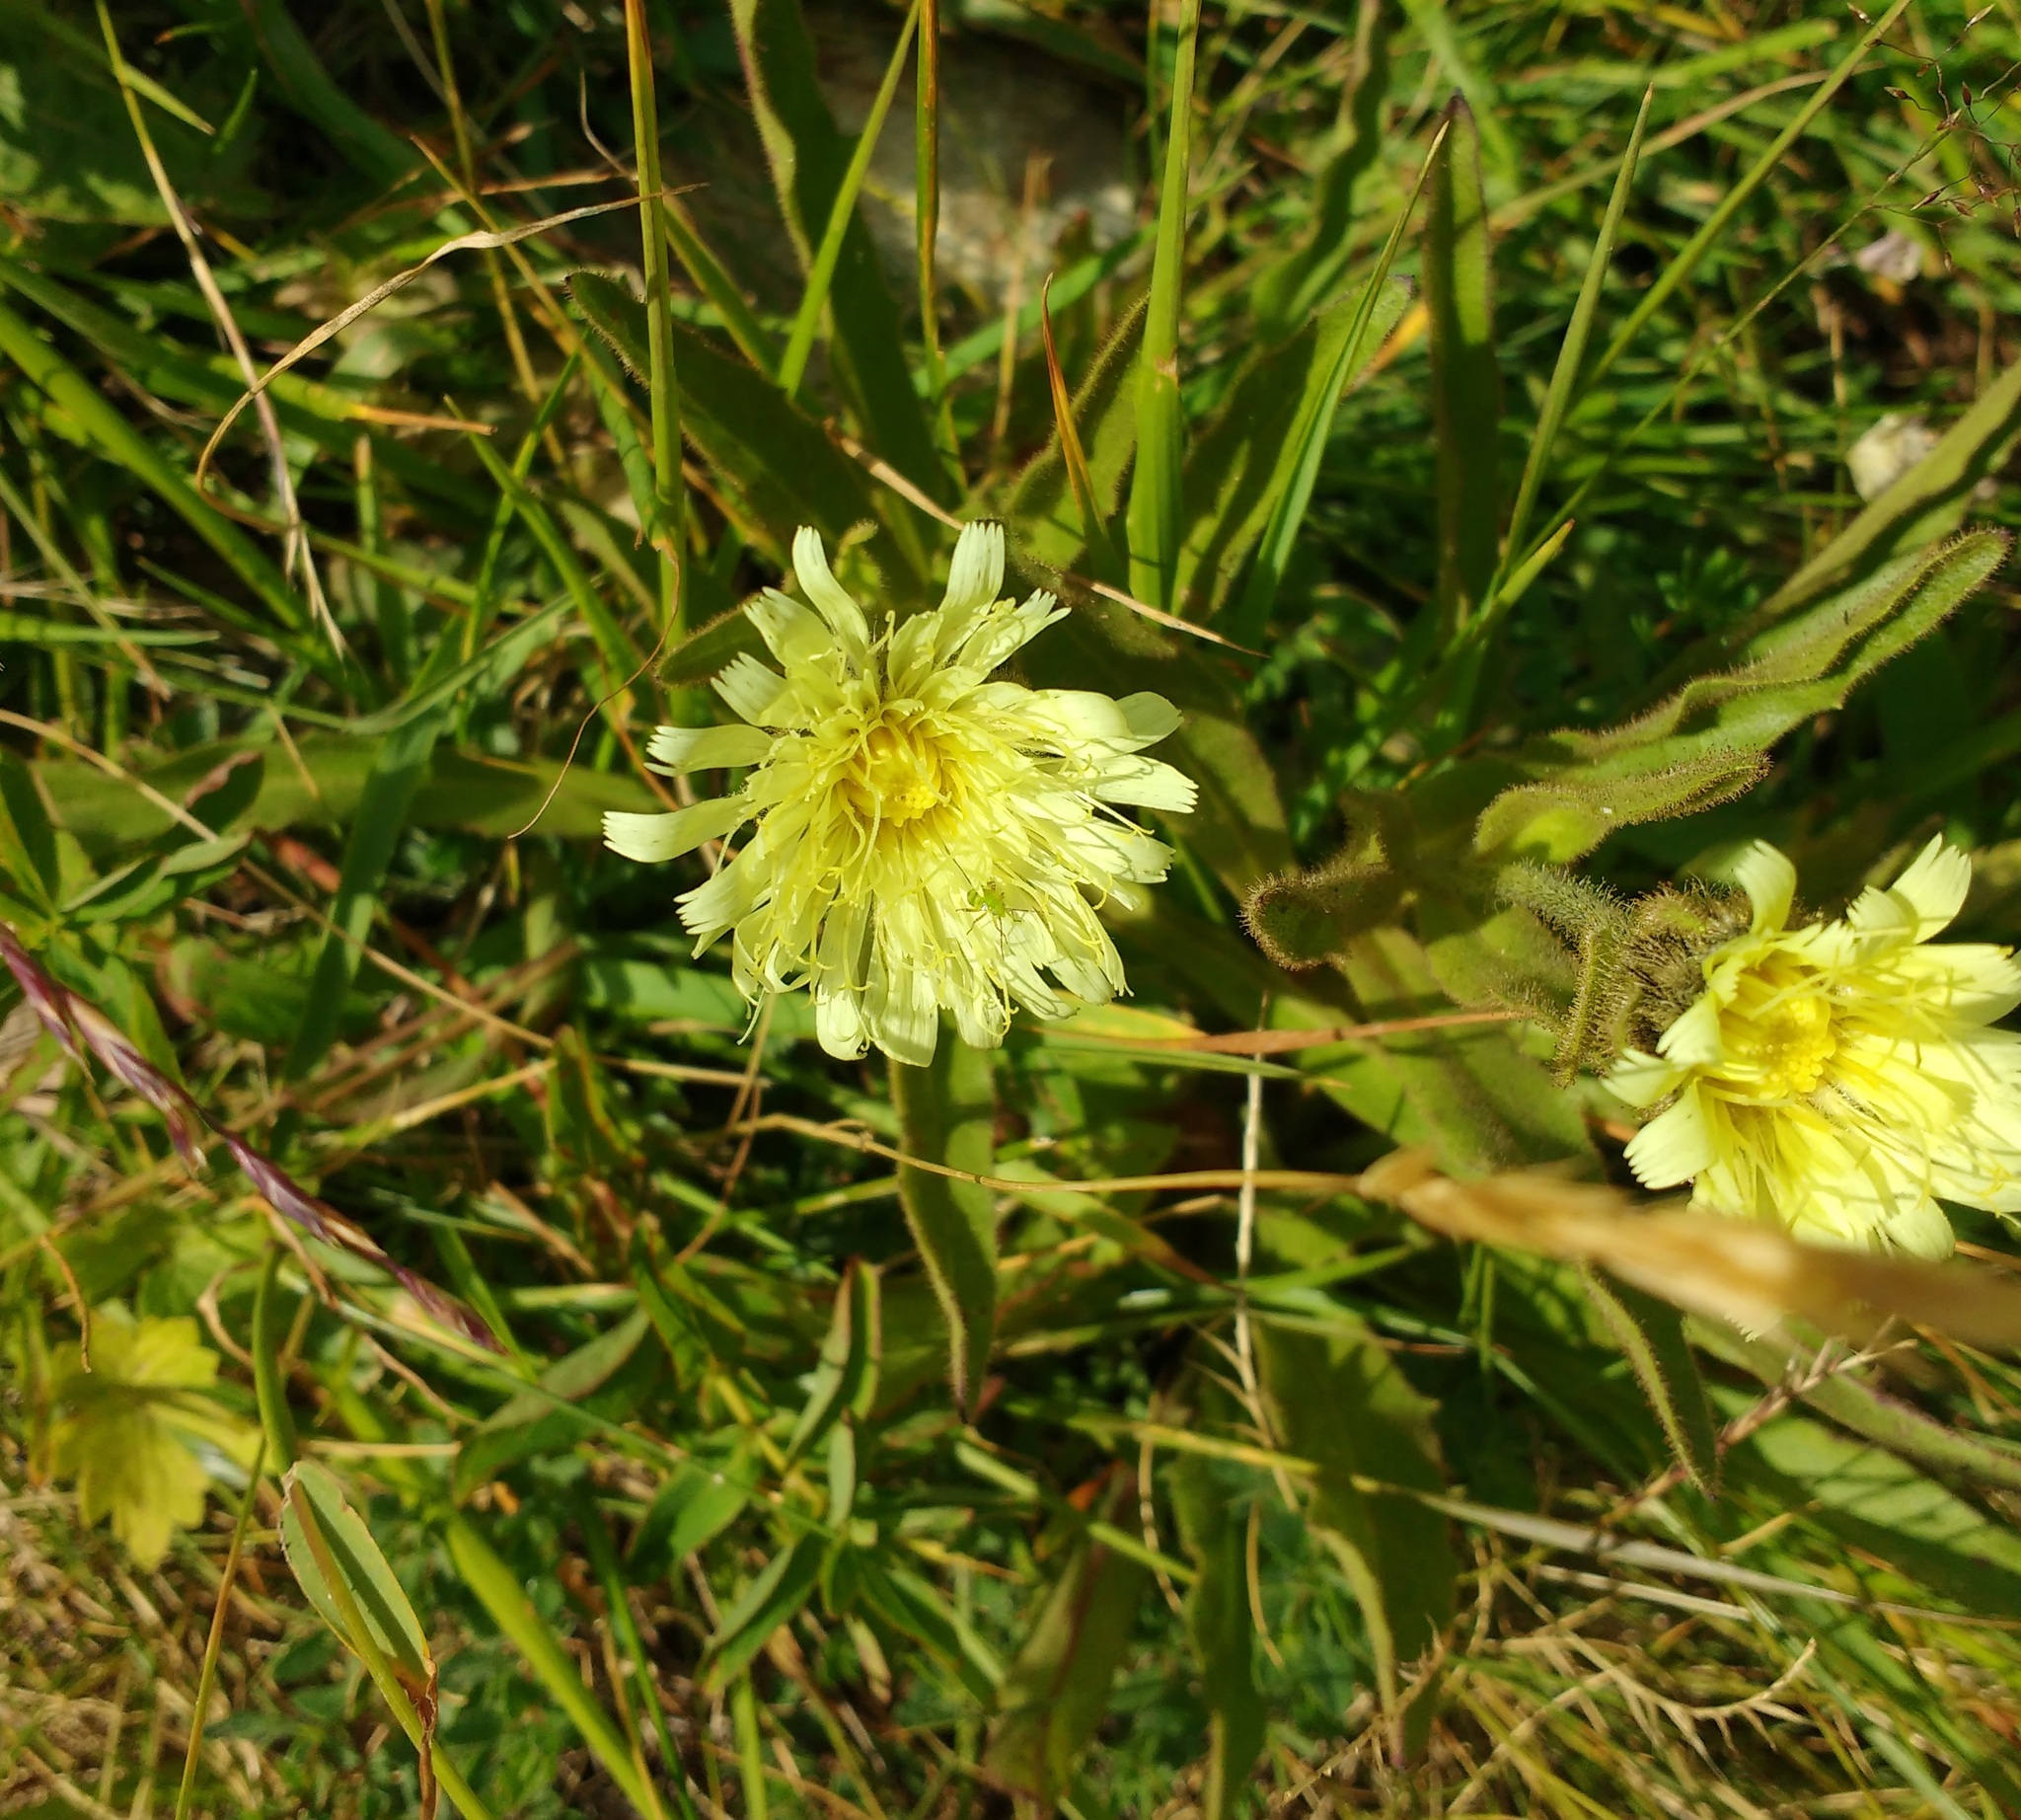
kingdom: Plantae
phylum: Tracheophyta
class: Magnoliopsida
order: Asterales
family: Asteraceae
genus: Schlagintweitia
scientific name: Schlagintweitia intybacea
